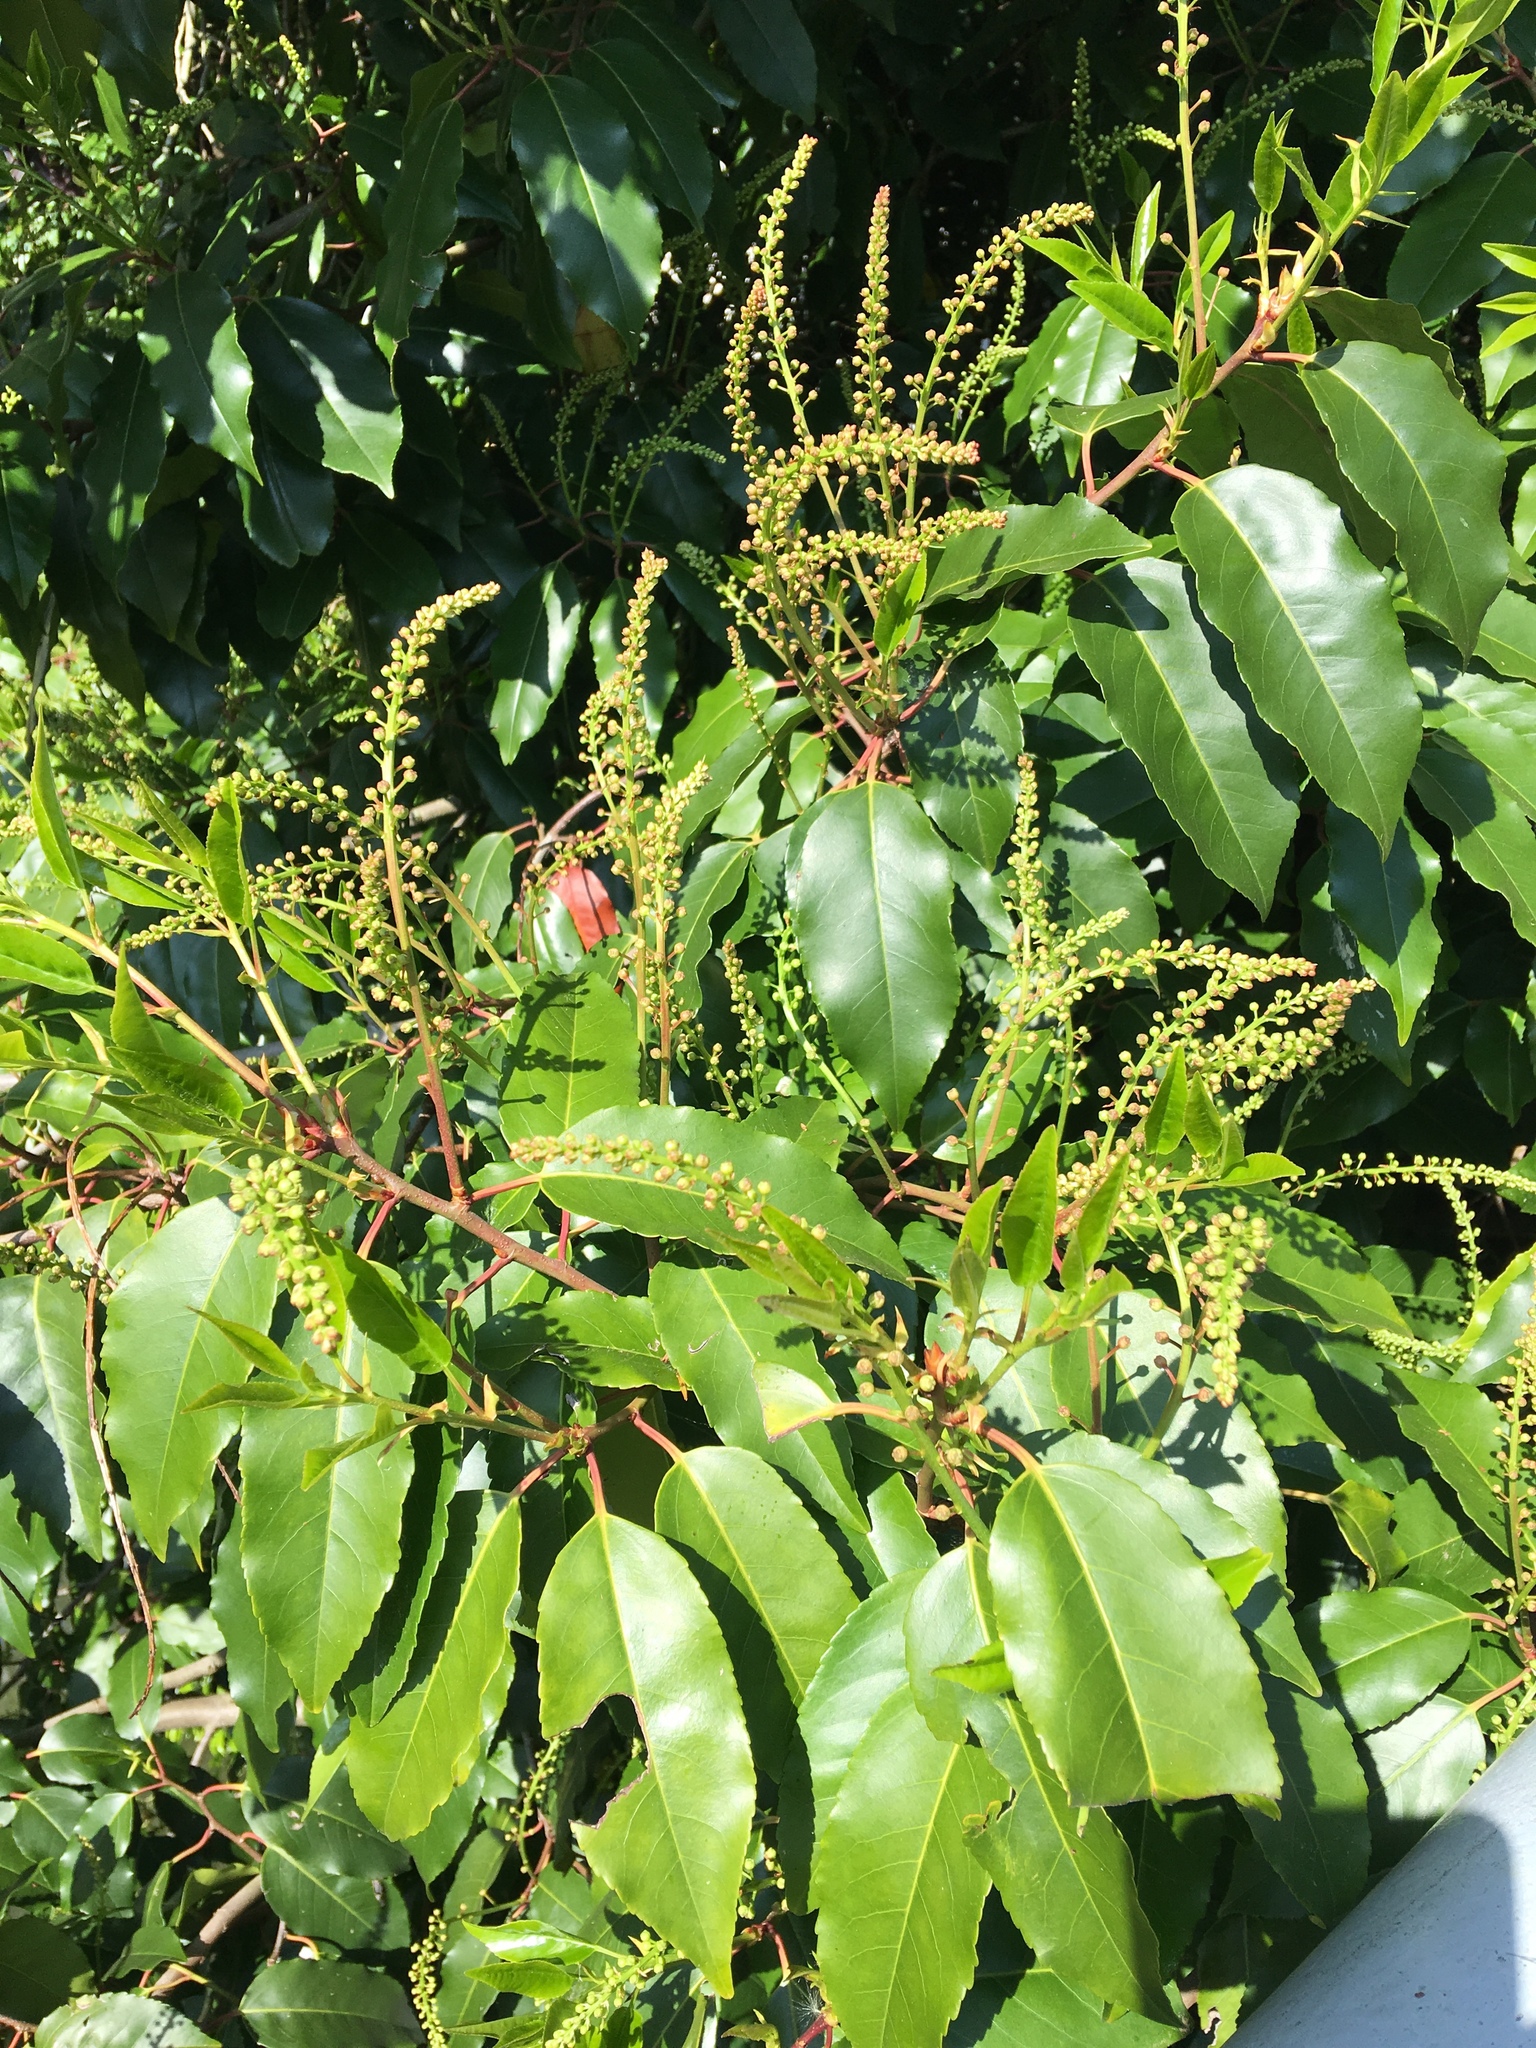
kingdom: Plantae
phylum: Tracheophyta
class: Magnoliopsida
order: Rosales
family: Rosaceae
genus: Prunus
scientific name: Prunus lusitanica
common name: Portugal laurel
